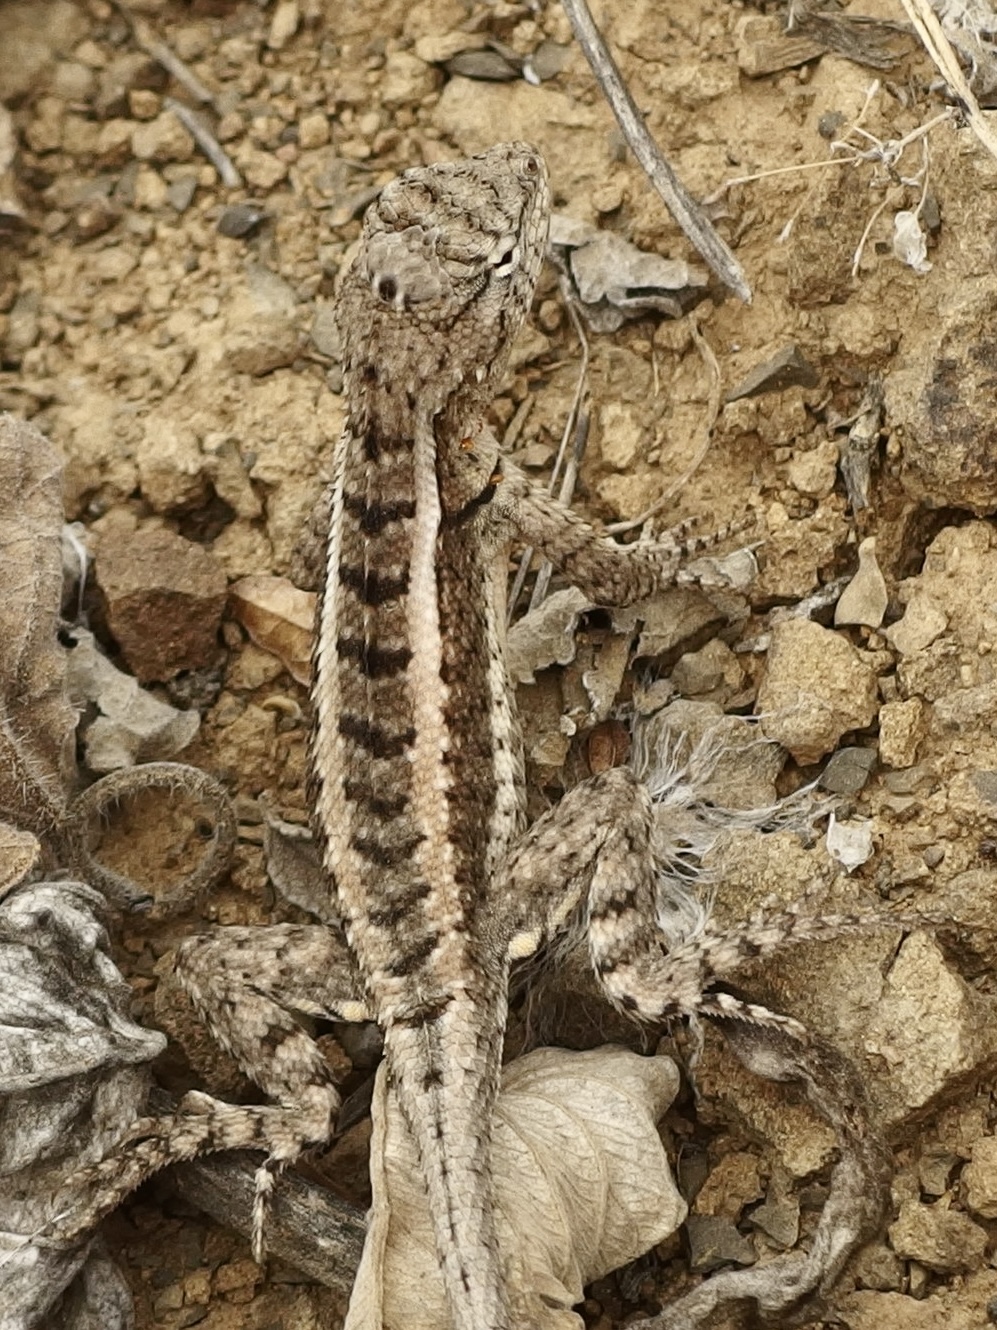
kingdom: Animalia
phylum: Chordata
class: Squamata
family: Tropiduridae
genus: Microlophus
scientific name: Microlophus occipitalis
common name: Knobbed pacific iguana
